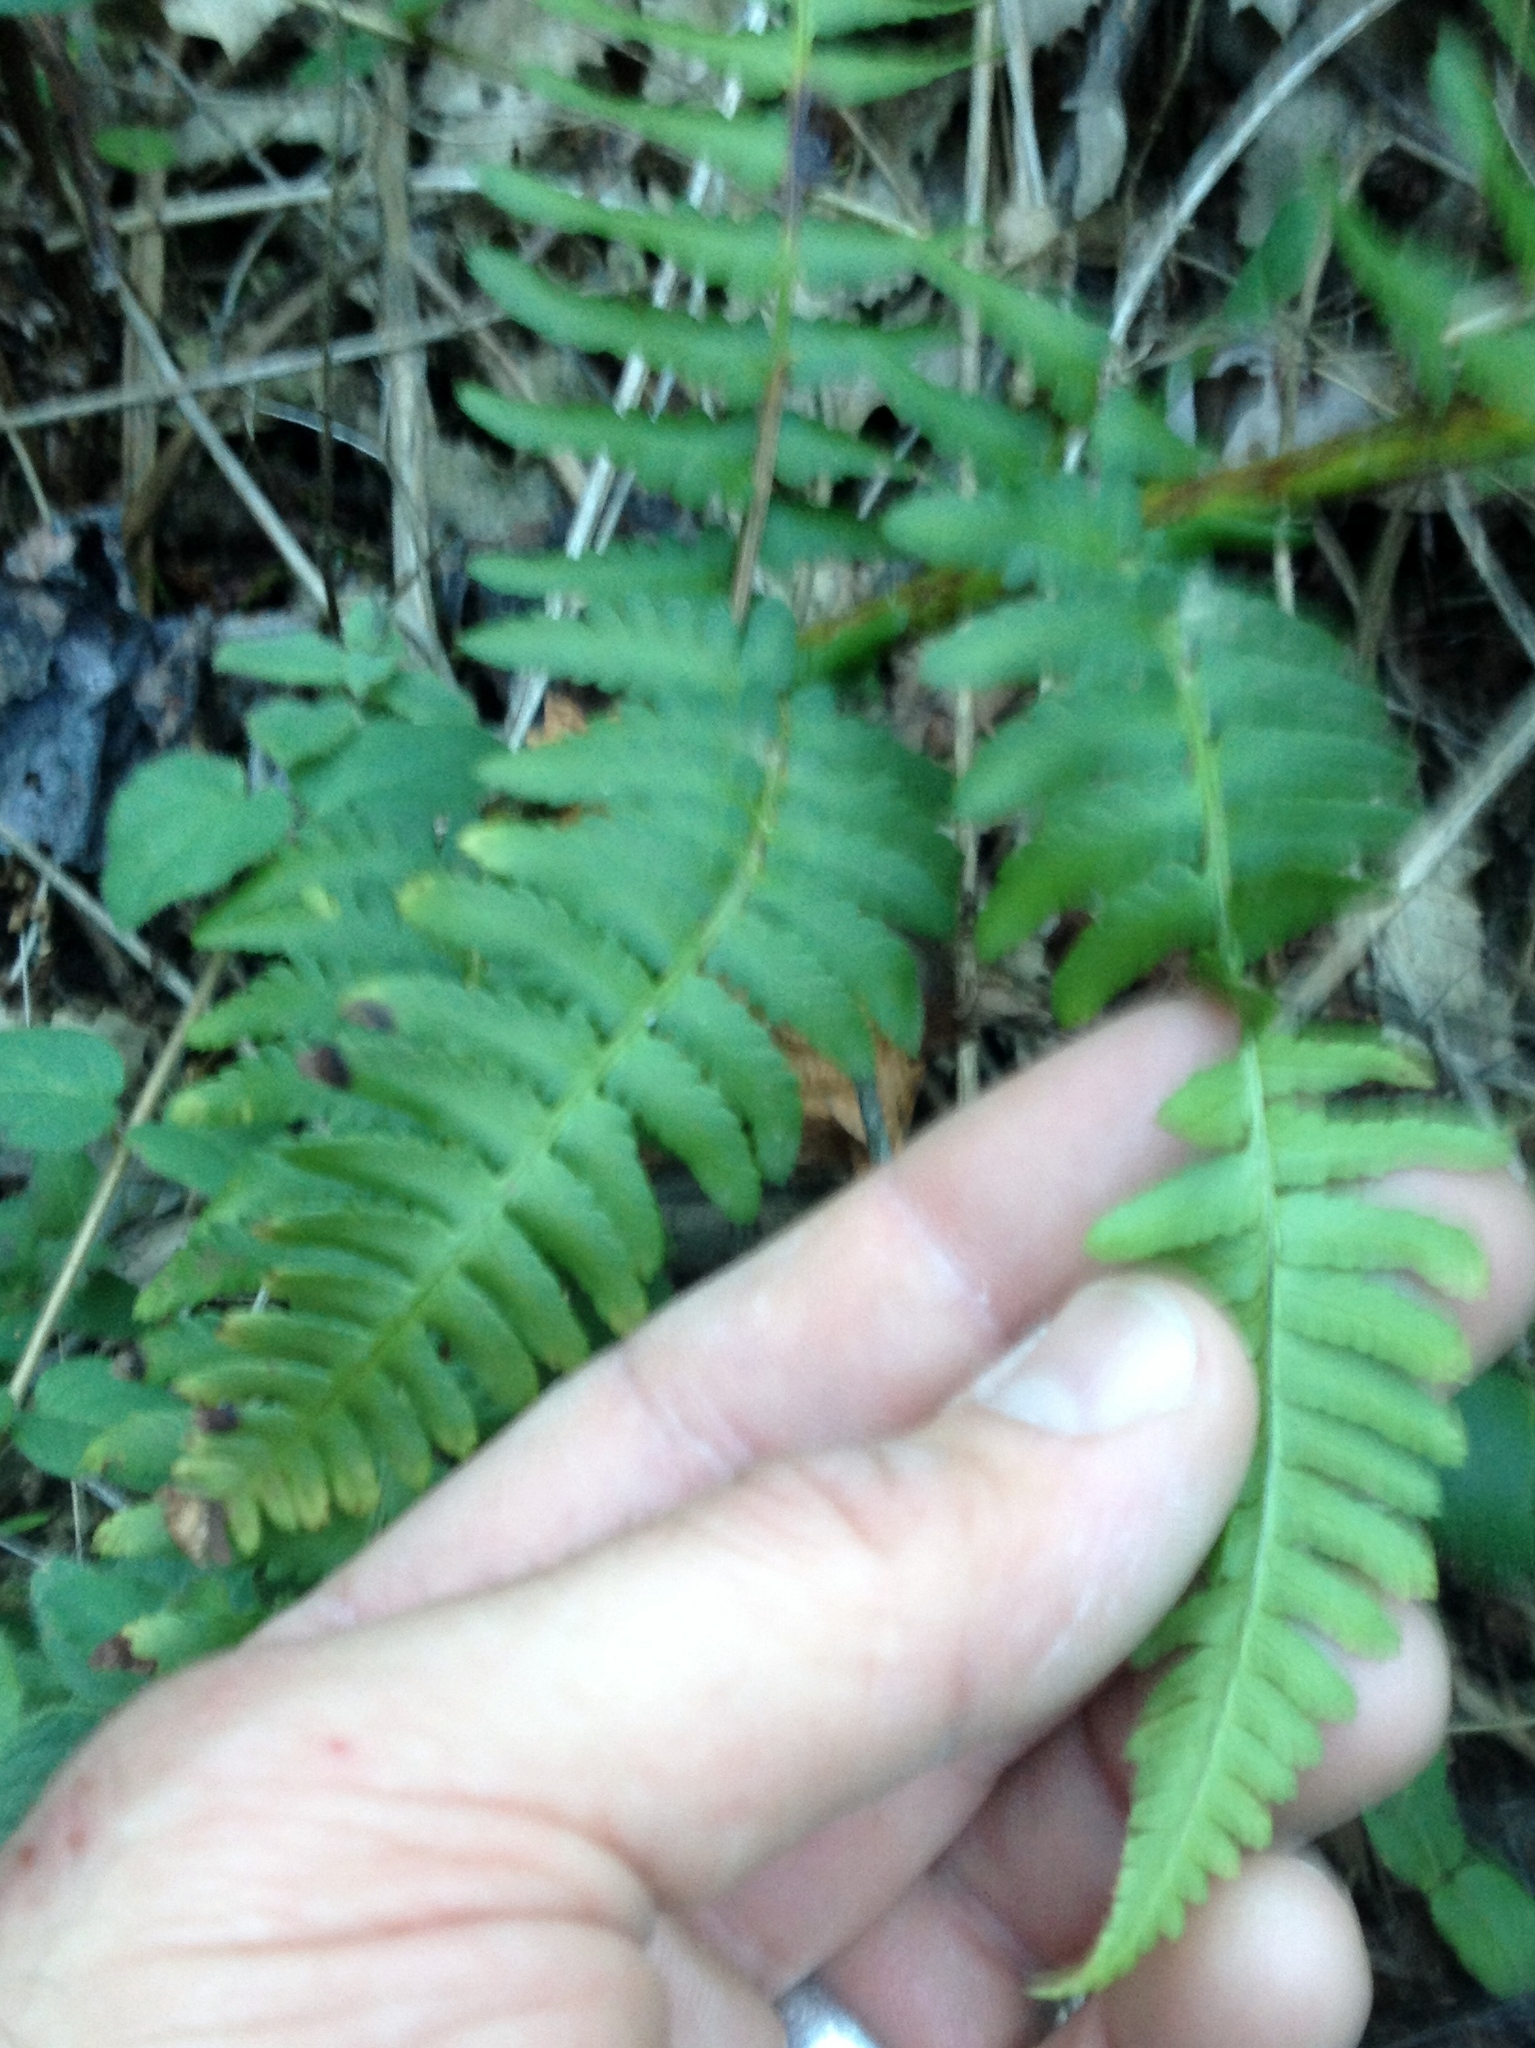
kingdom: Plantae
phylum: Tracheophyta
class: Polypodiopsida
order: Polypodiales
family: Dryopteridaceae
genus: Dryopteris
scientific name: Dryopteris arguta
